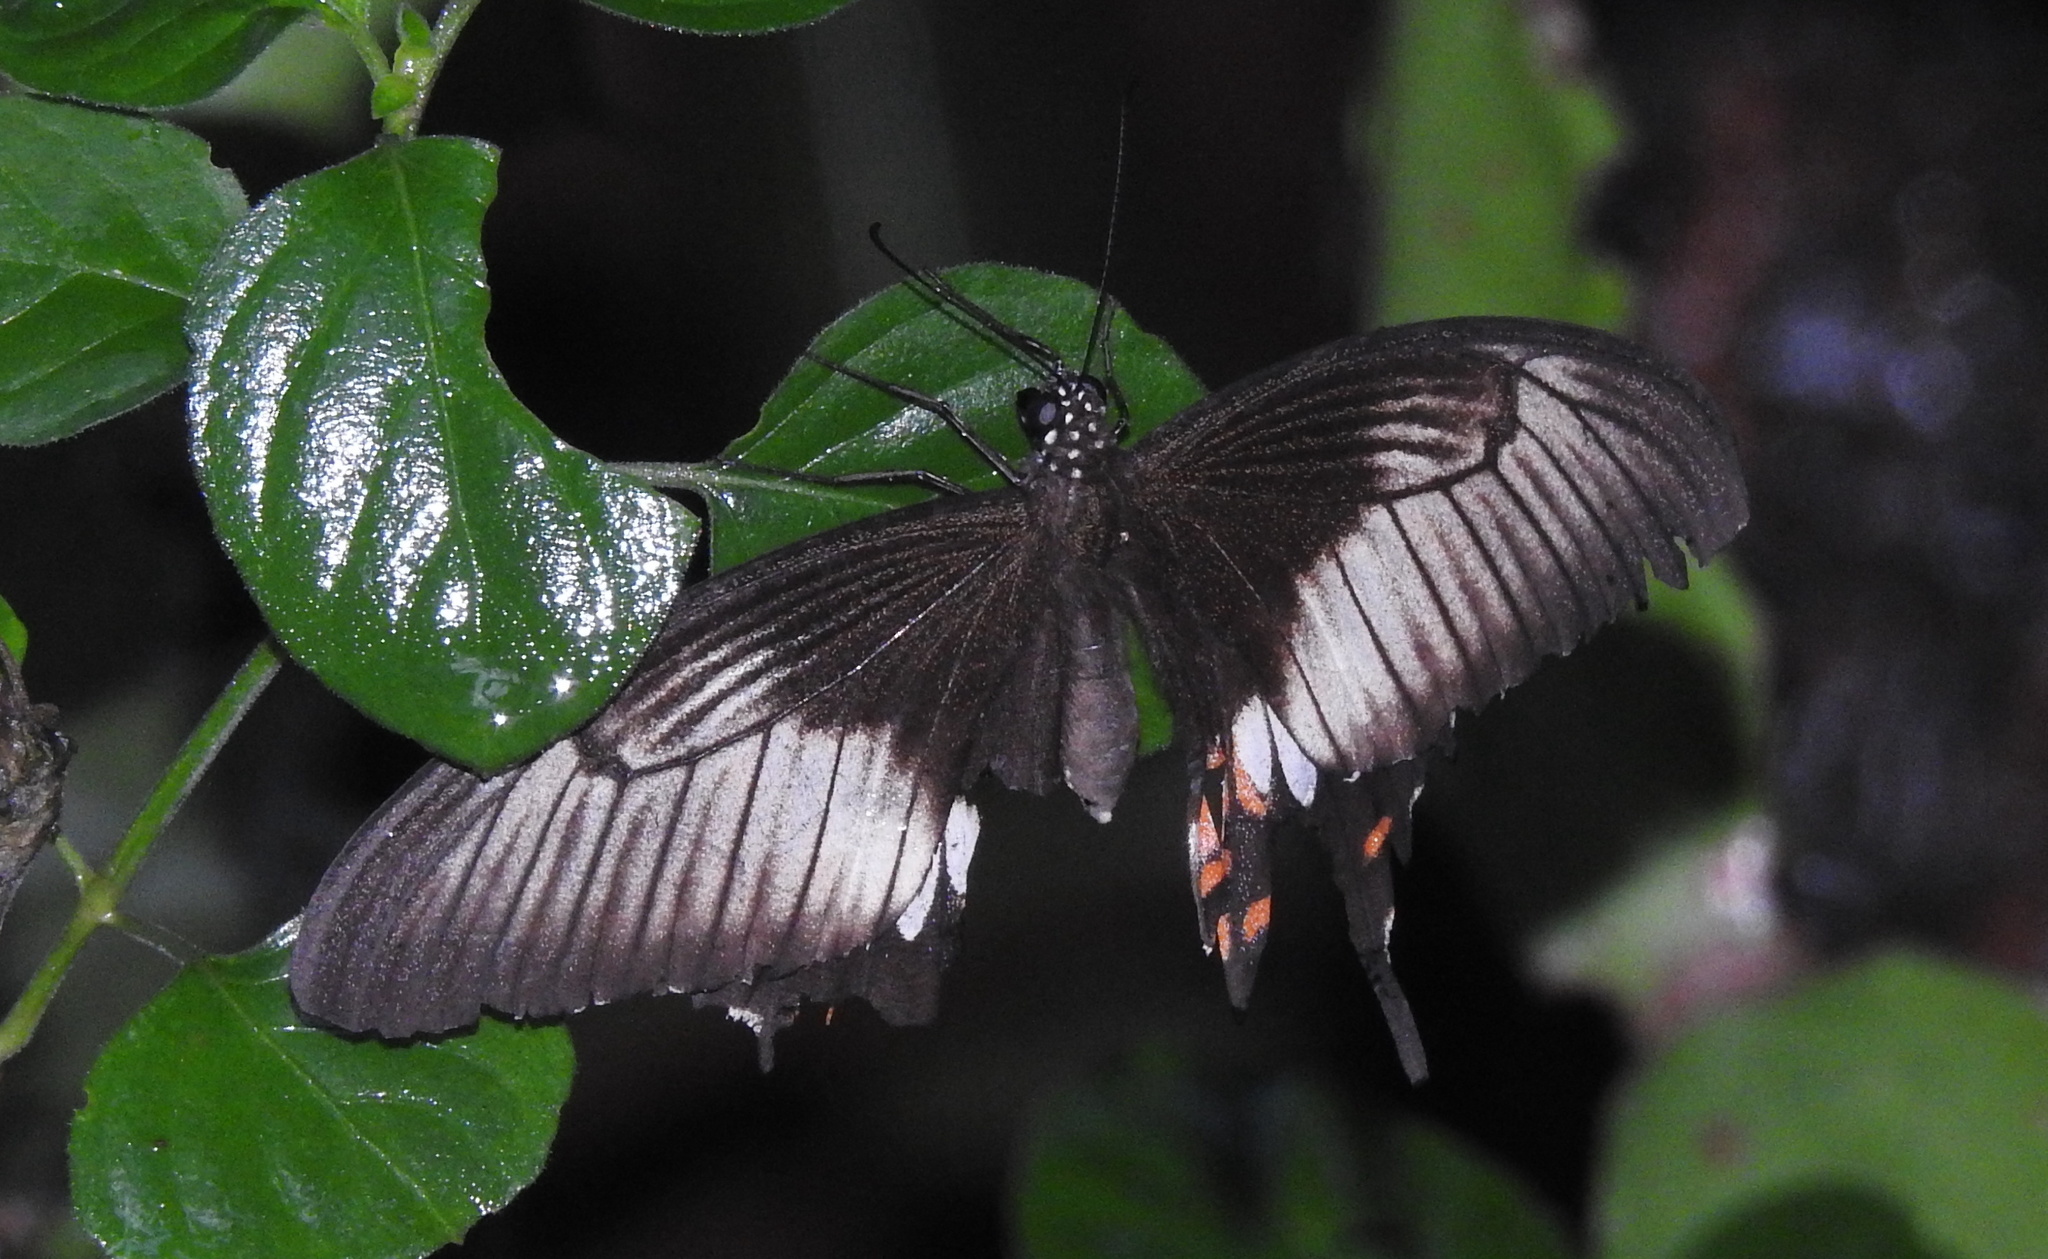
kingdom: Animalia
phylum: Arthropoda
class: Insecta
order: Lepidoptera
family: Papilionidae
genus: Papilio
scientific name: Papilio polytes
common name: Common mormon
